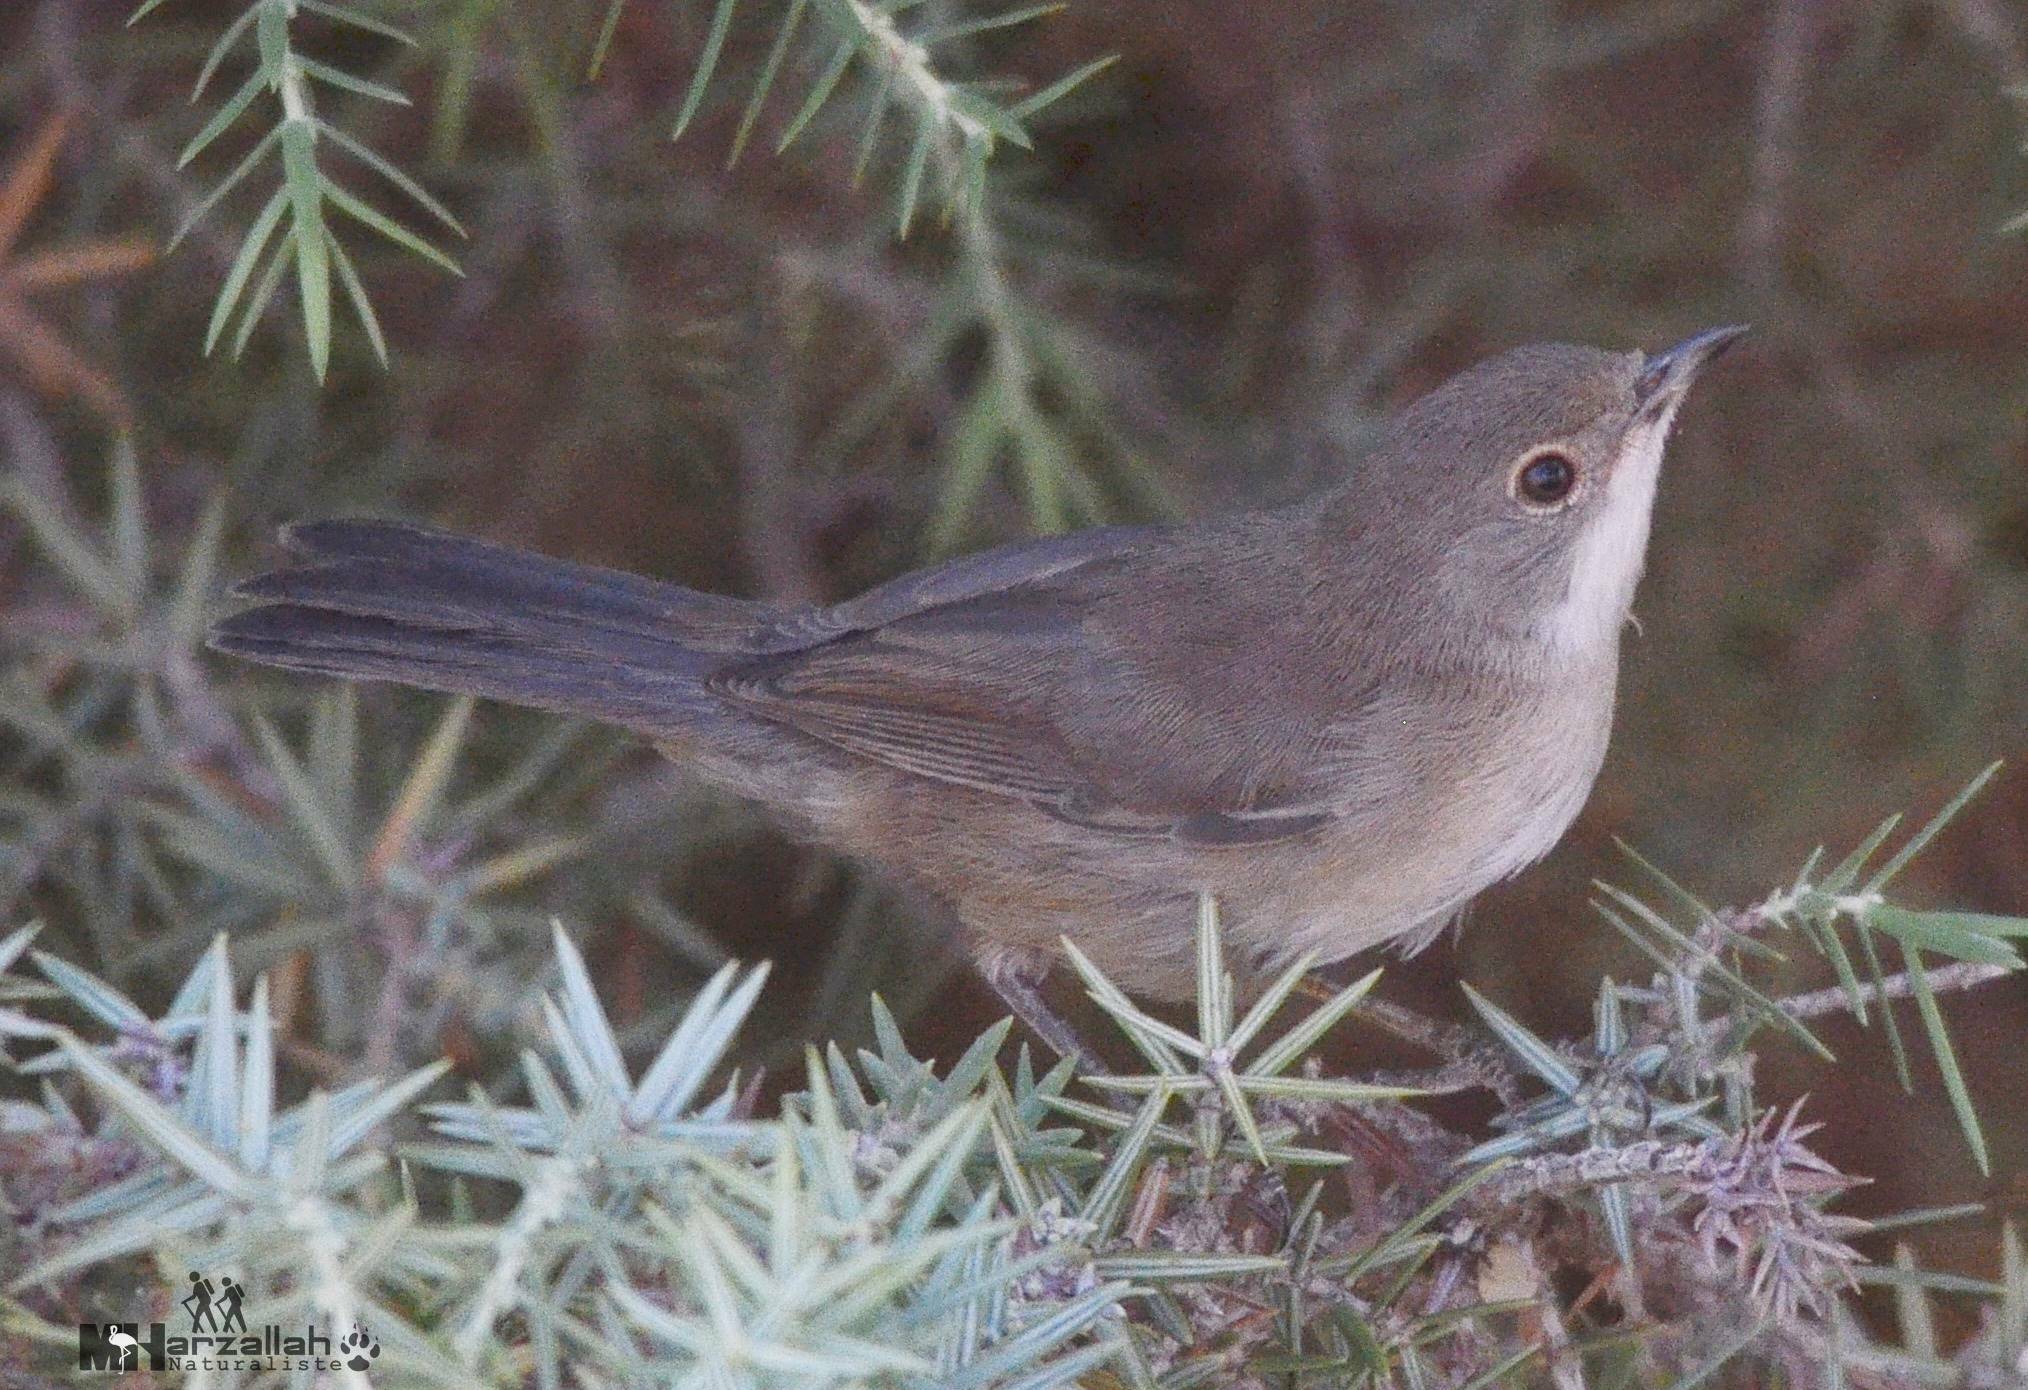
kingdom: Animalia
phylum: Chordata
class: Aves
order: Passeriformes
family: Sylviidae
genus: Curruca
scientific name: Curruca melanocephala
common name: Sardinian warbler
